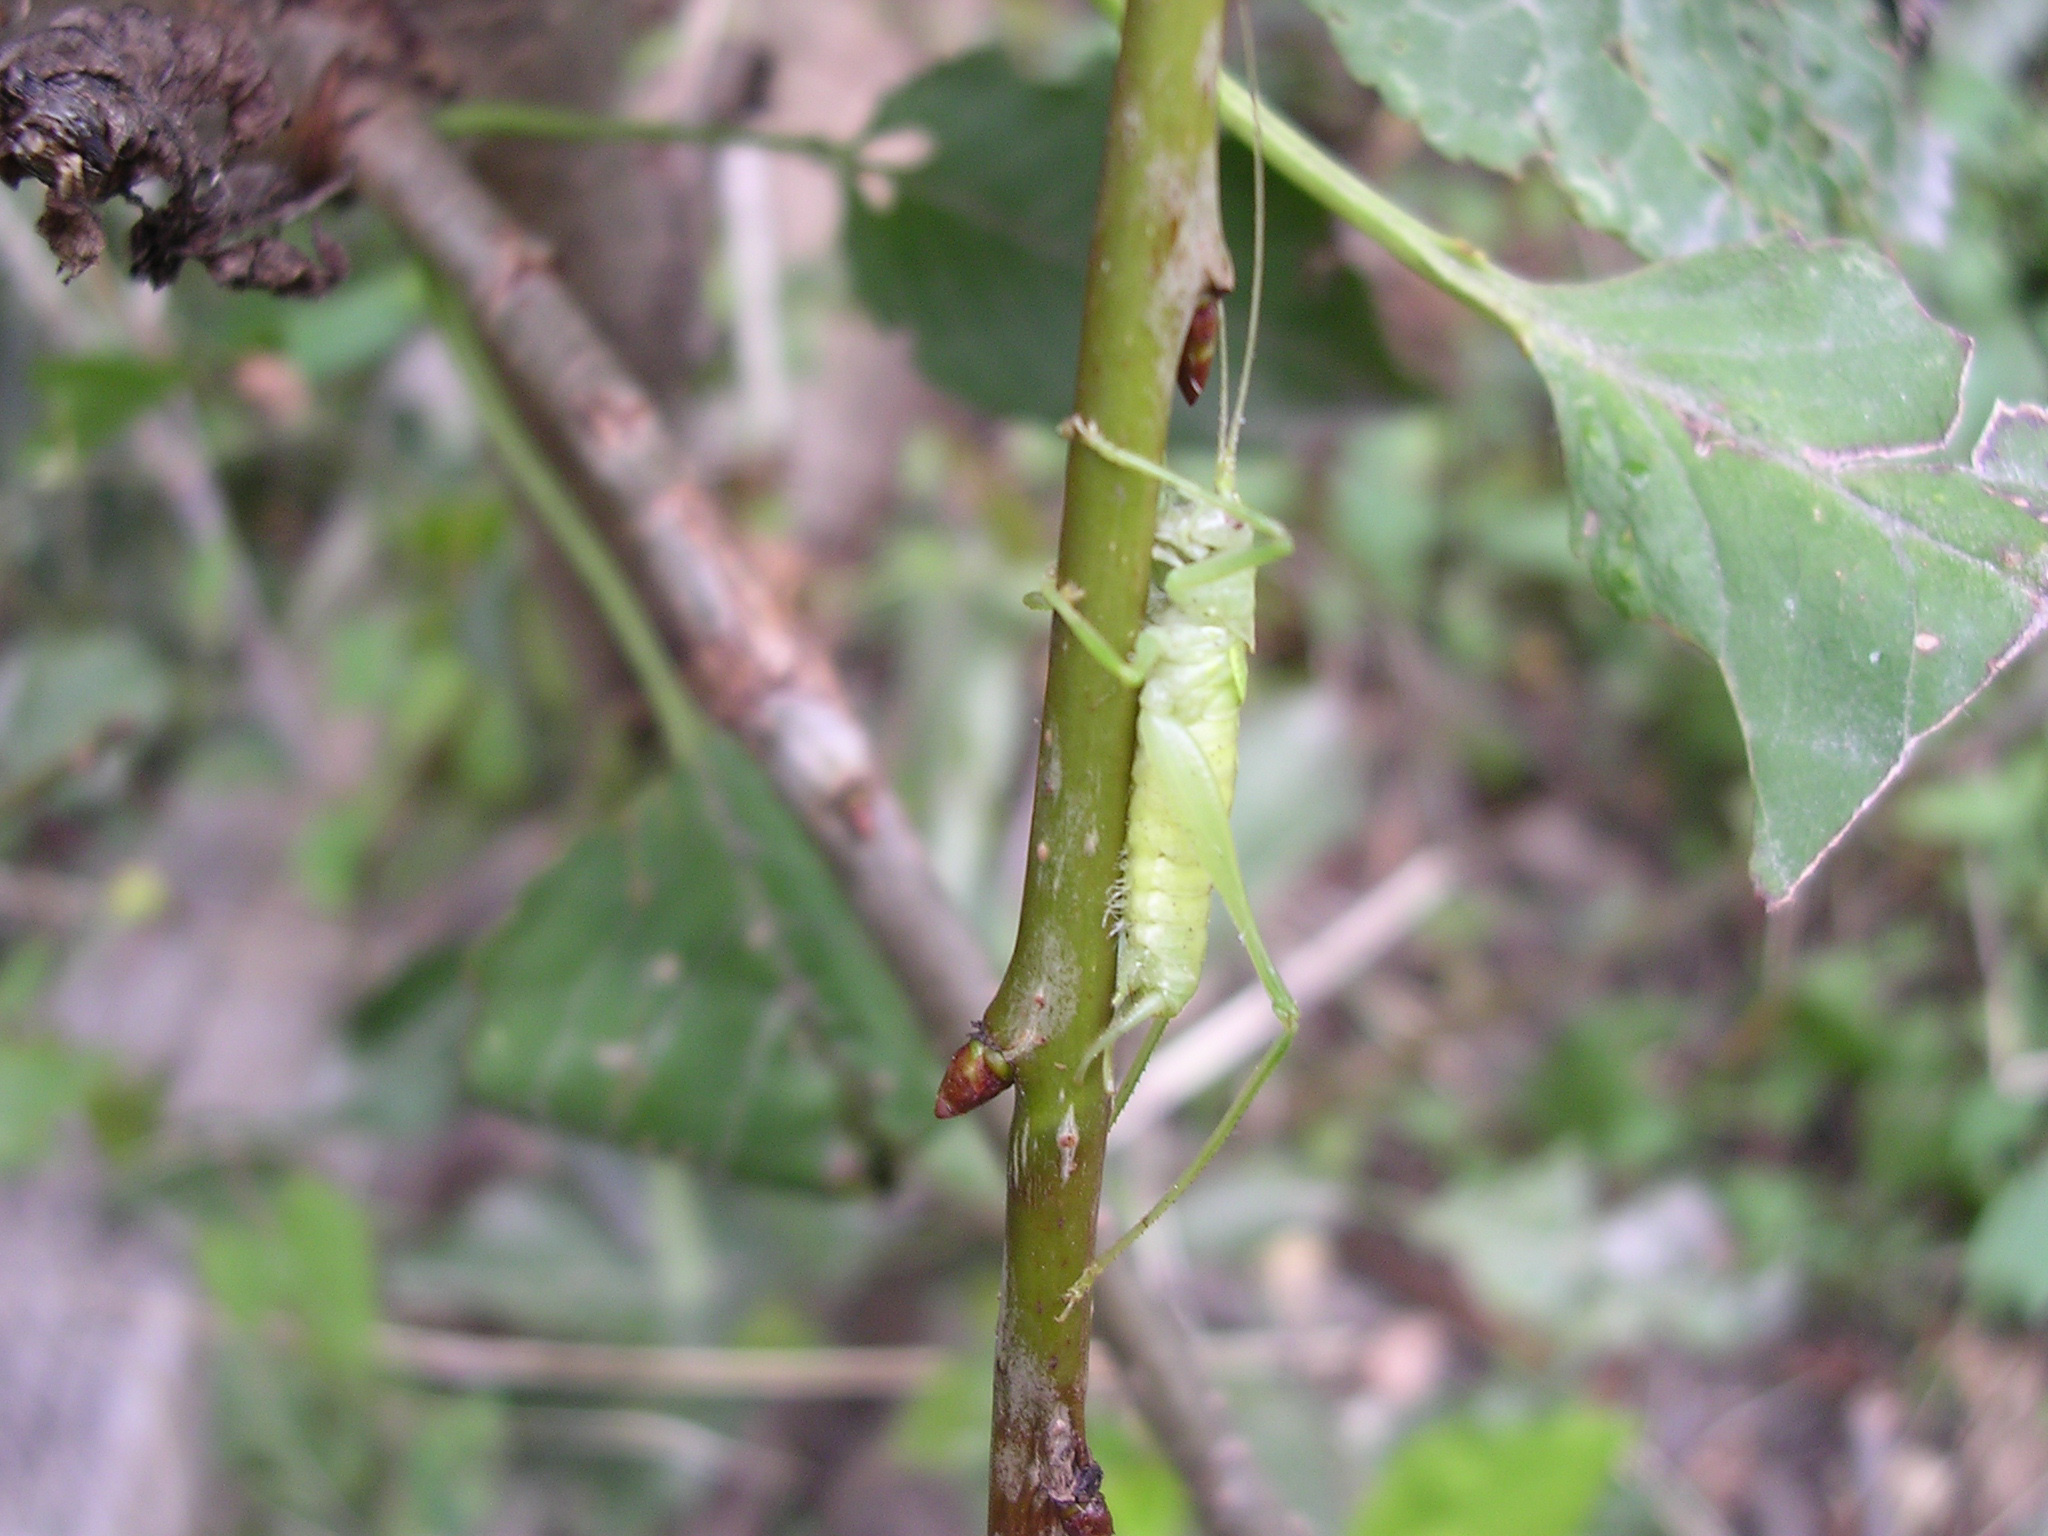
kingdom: Animalia
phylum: Arthropoda
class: Insecta
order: Orthoptera
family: Tettigoniidae
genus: Meconema
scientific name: Meconema meridionale
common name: Southern oak bush-cricket
